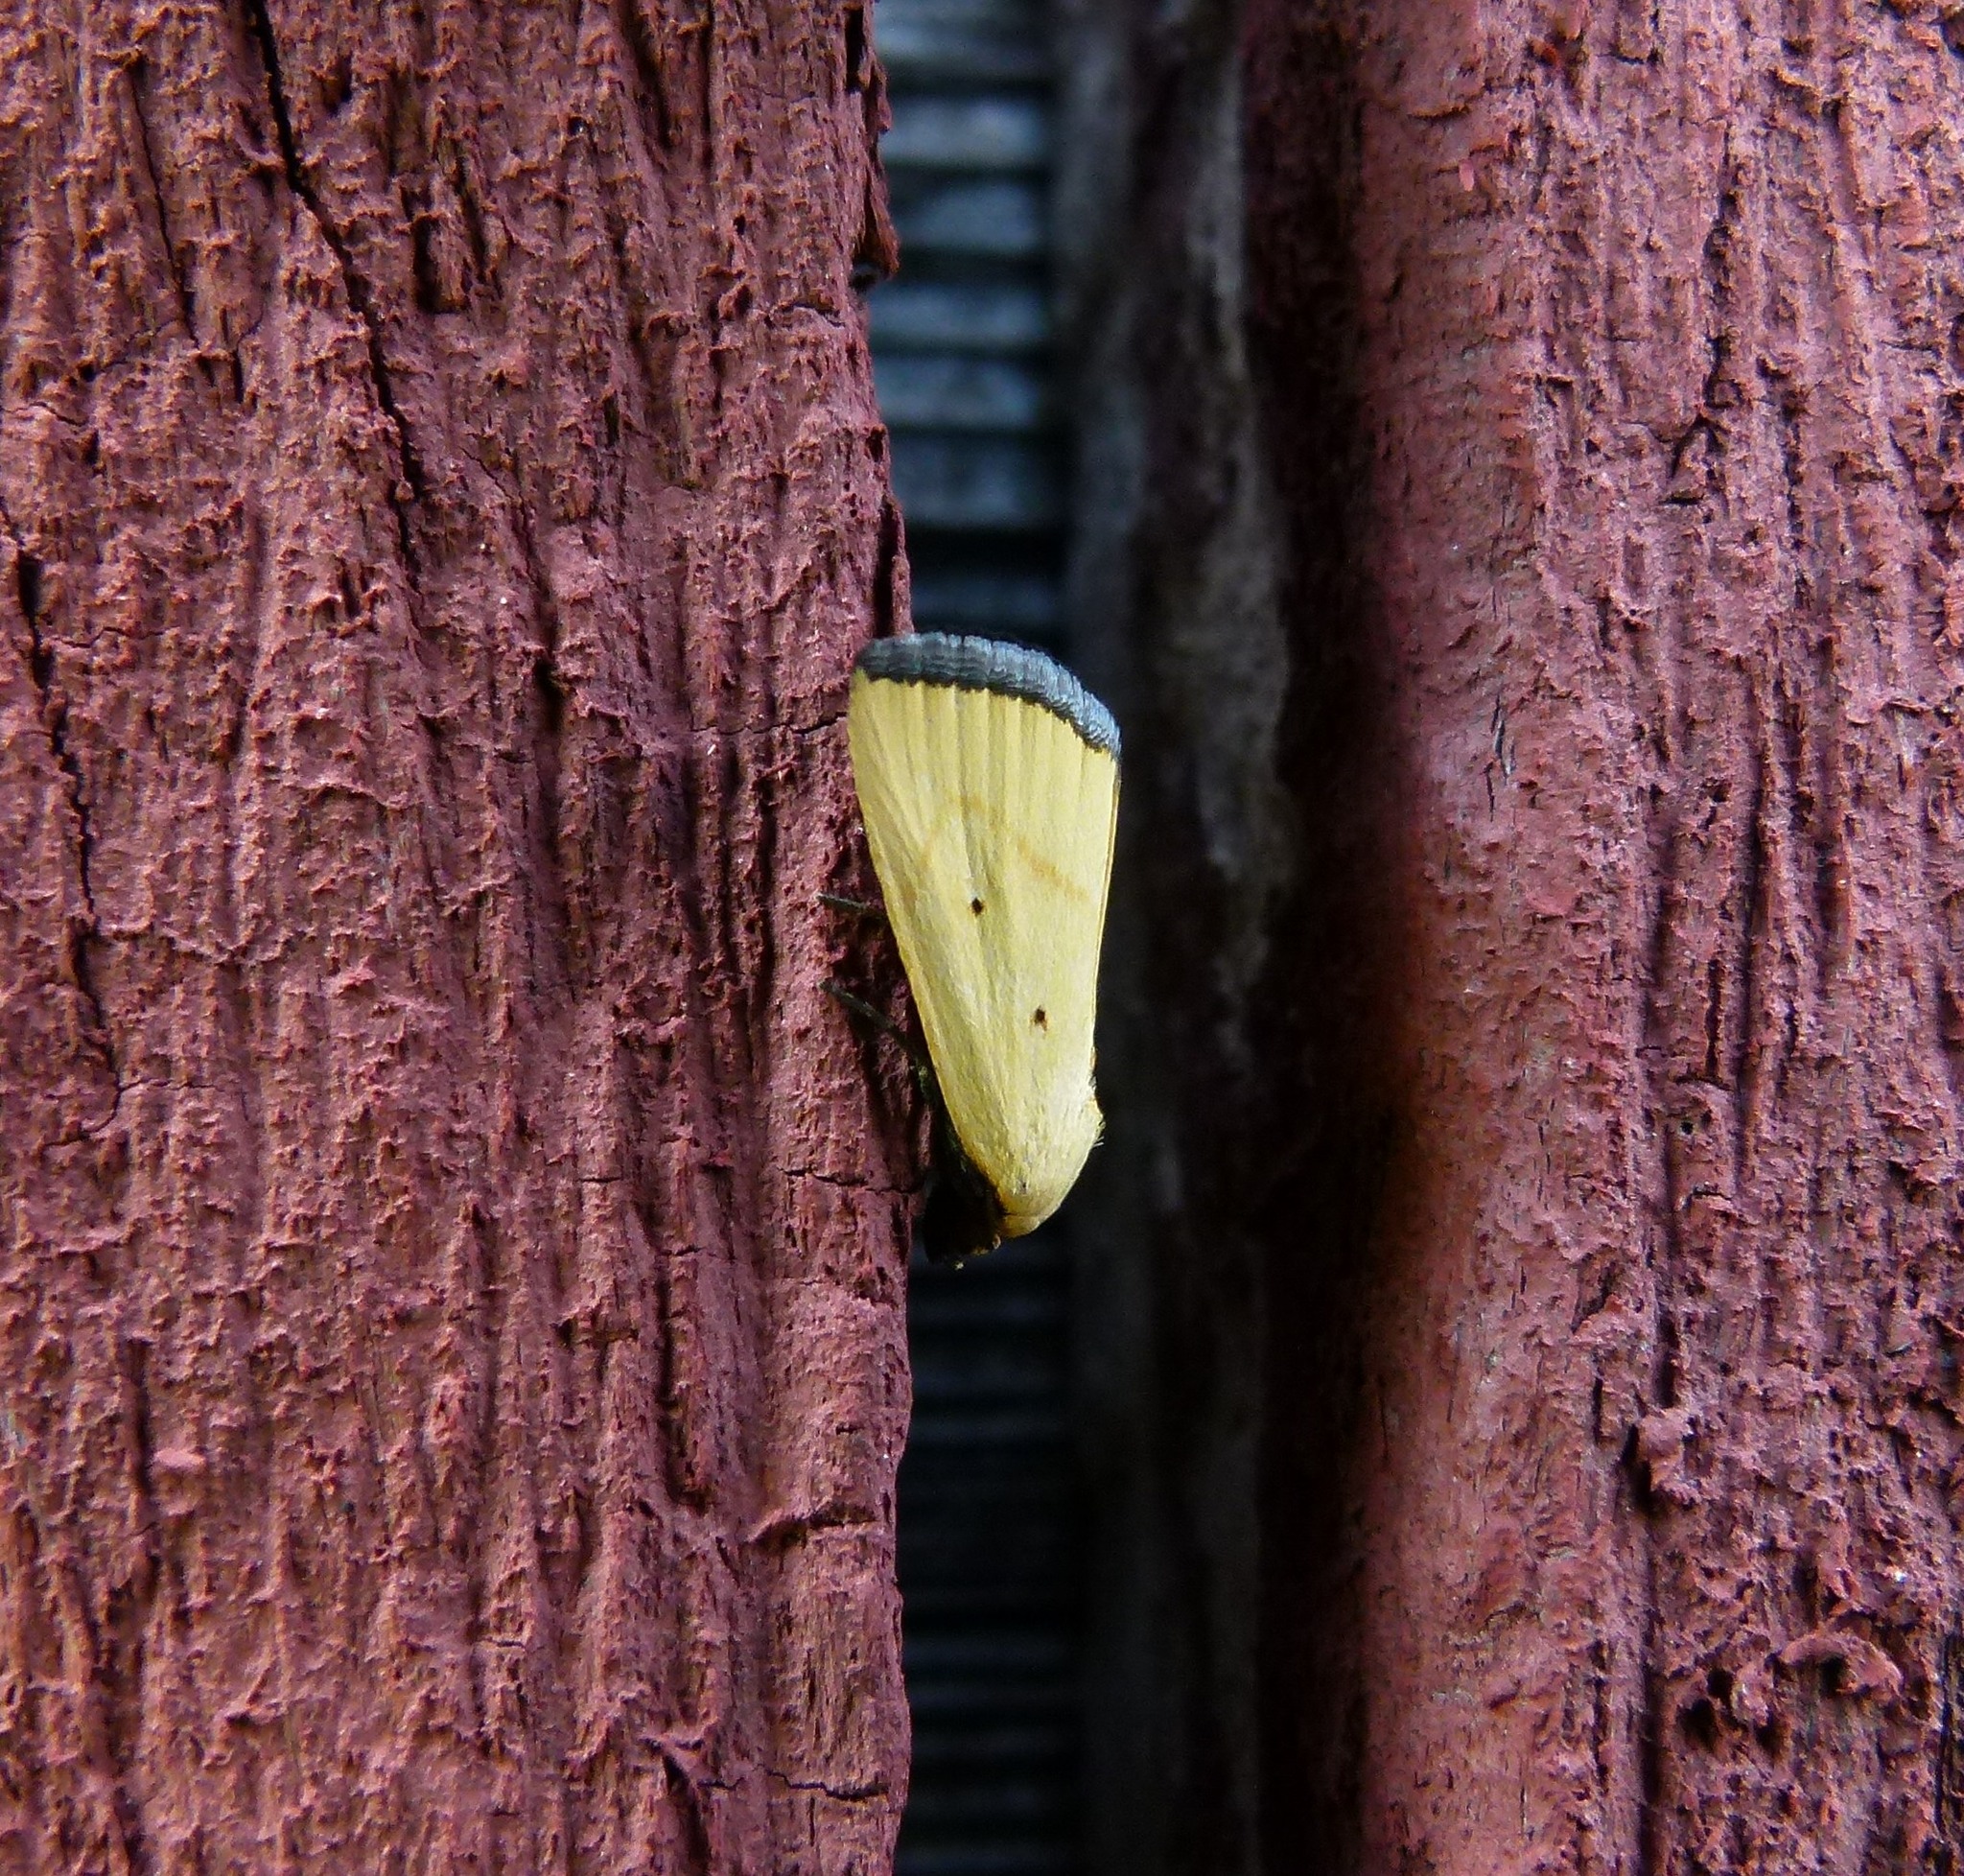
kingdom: Animalia
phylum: Arthropoda
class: Insecta
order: Lepidoptera
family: Noctuidae
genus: Marimatha
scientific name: Marimatha nigrofimbria
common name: Black-bordered lemon moth
